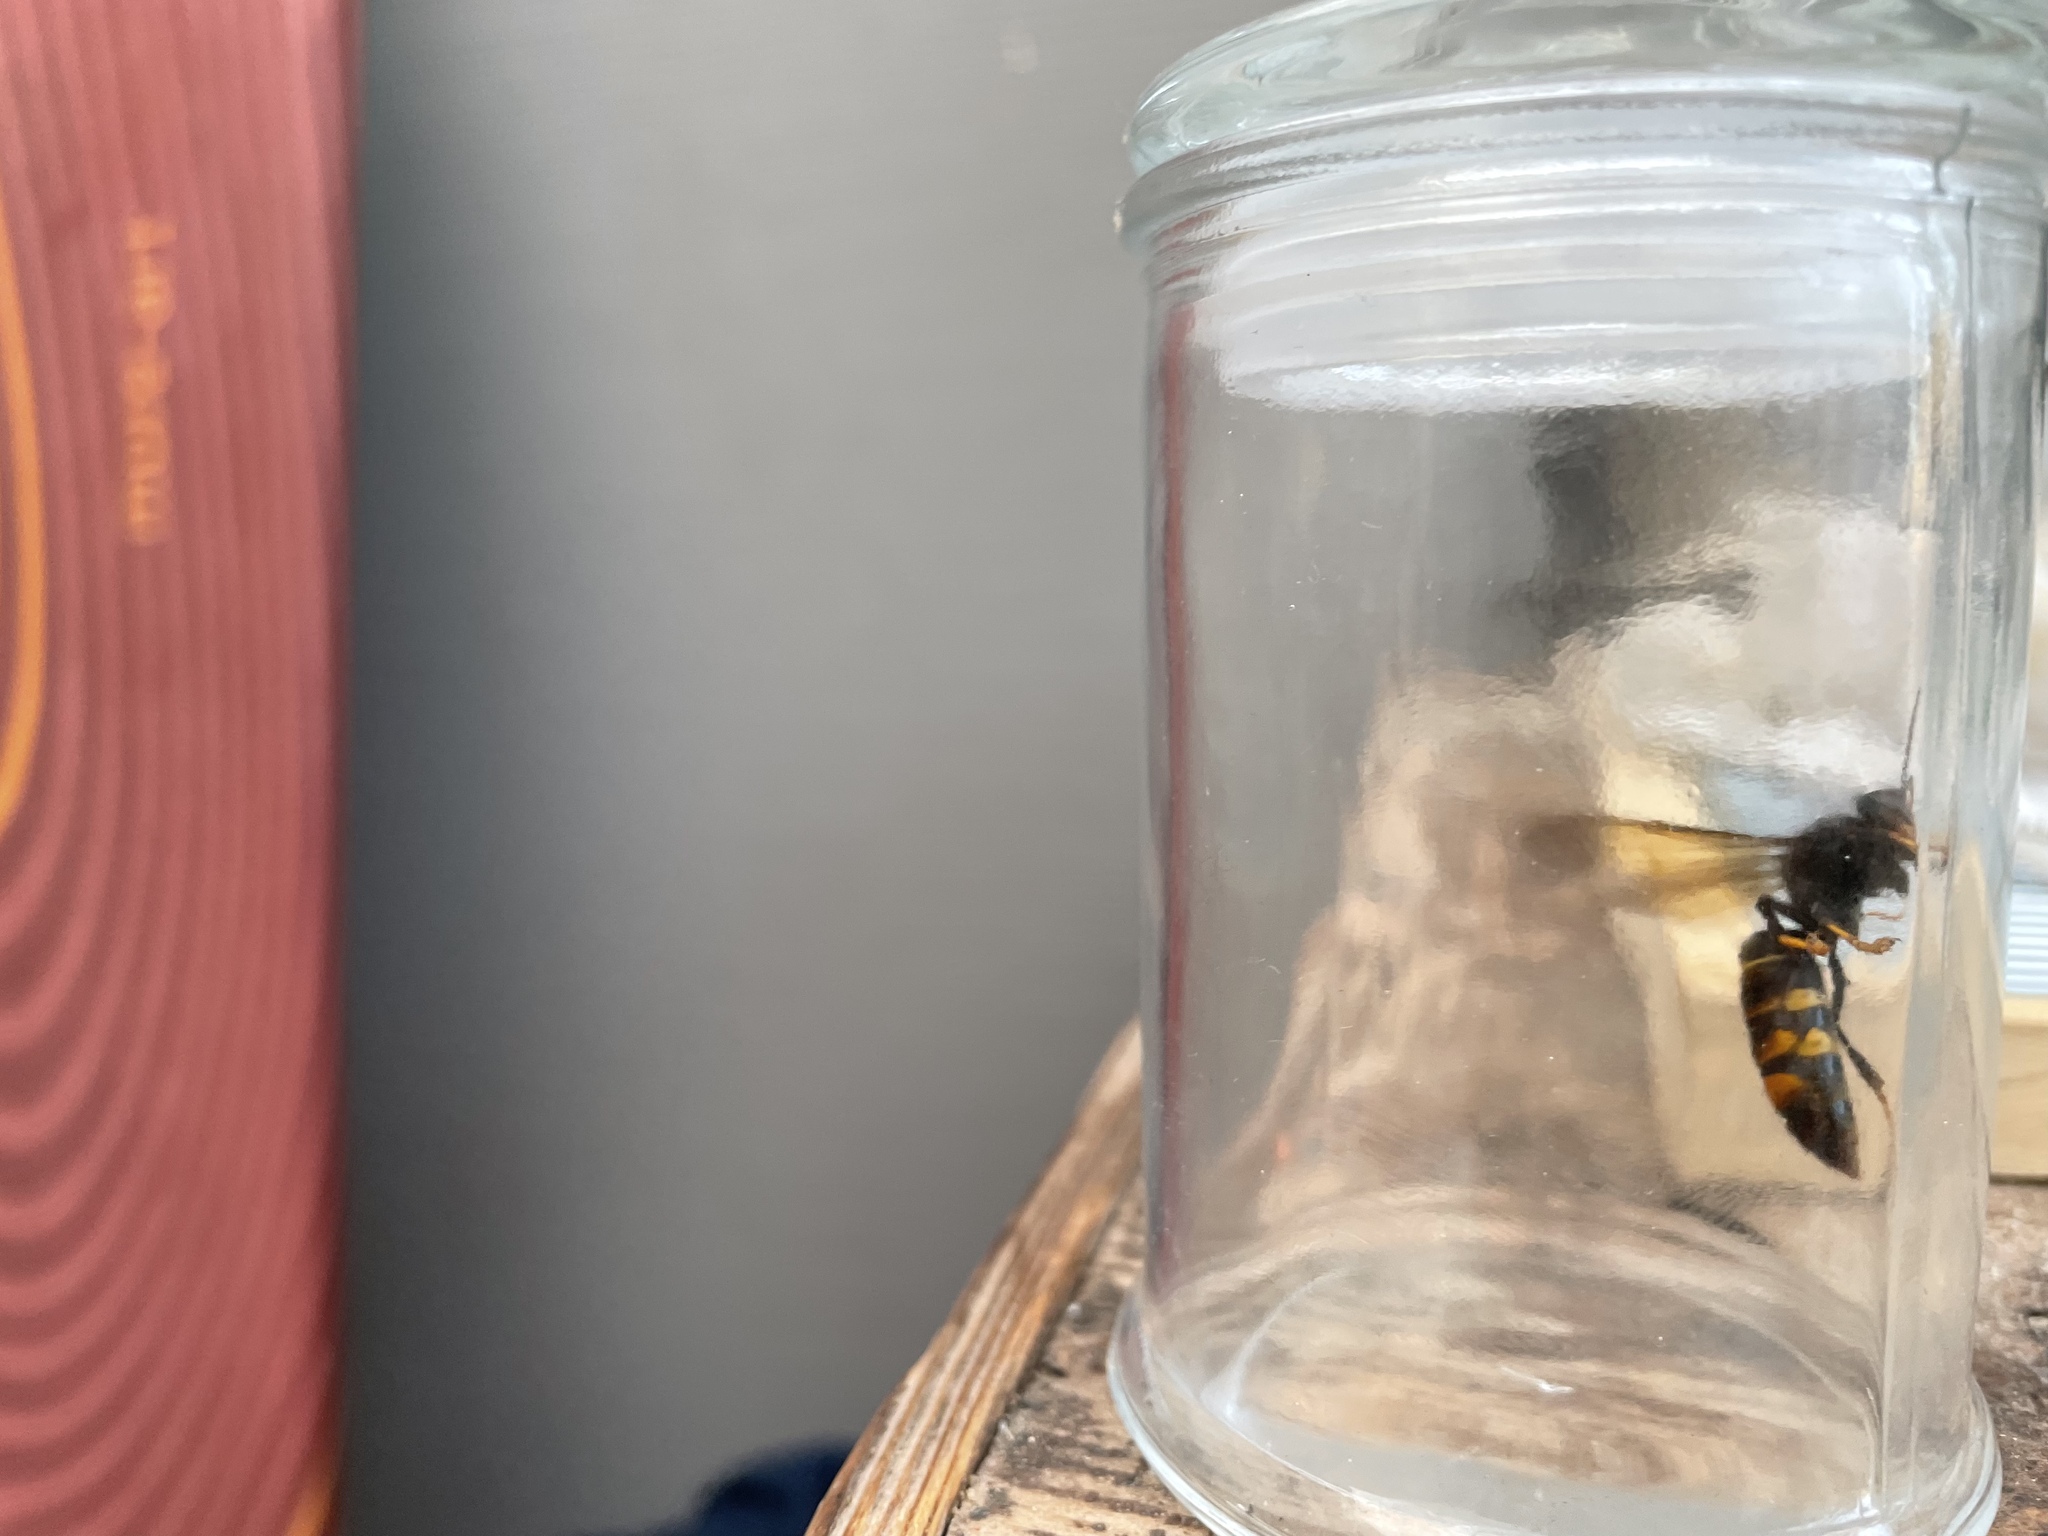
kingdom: Animalia
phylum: Arthropoda
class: Insecta
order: Hymenoptera
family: Vespidae
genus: Vespa
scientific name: Vespa velutina
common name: Asian hornet
